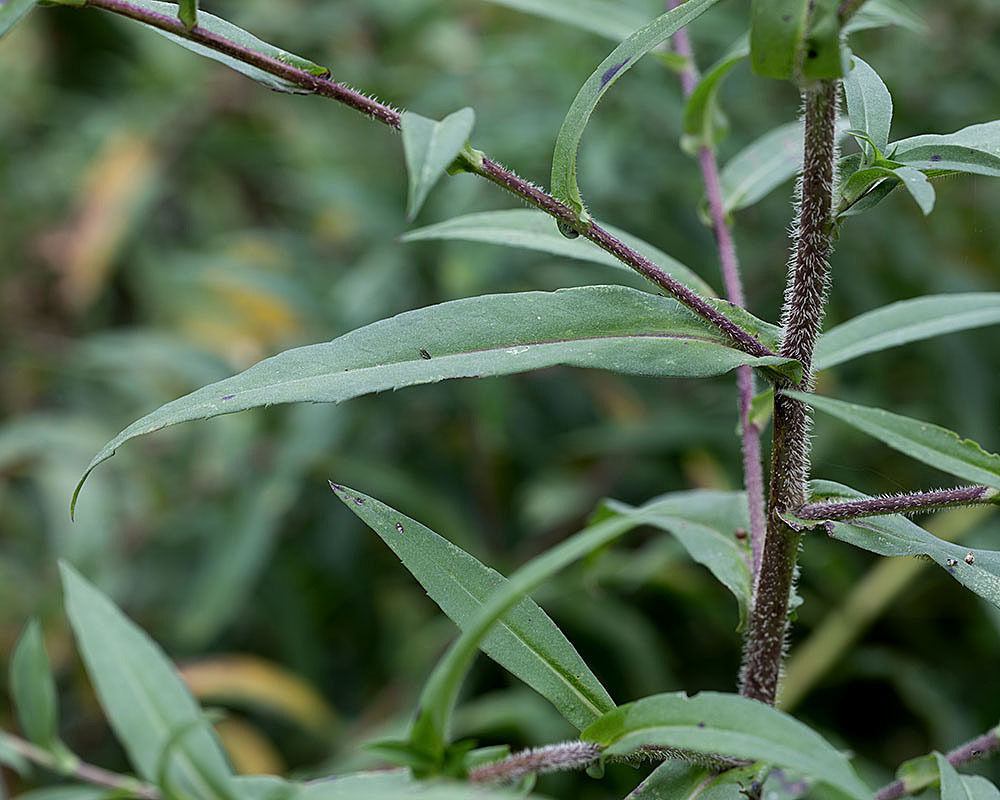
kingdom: Plantae
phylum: Tracheophyta
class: Magnoliopsida
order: Asterales
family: Asteraceae
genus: Symphyotrichum
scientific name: Symphyotrichum puniceum
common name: Bog aster
